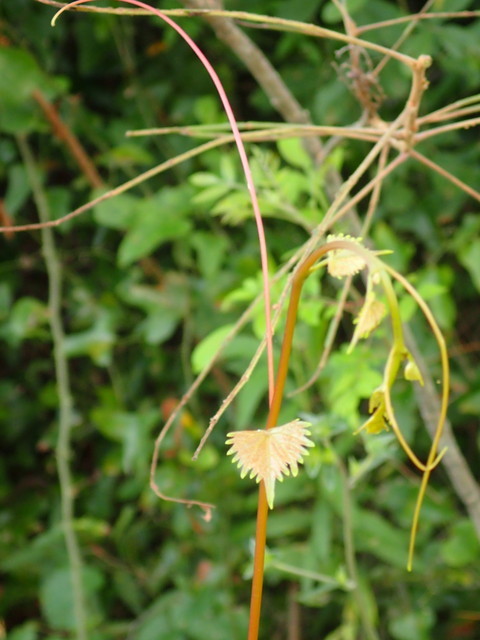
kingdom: Plantae
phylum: Tracheophyta
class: Magnoliopsida
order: Vitales
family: Vitaceae
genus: Vitis
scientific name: Vitis rotundifolia
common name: Muscadine grape
